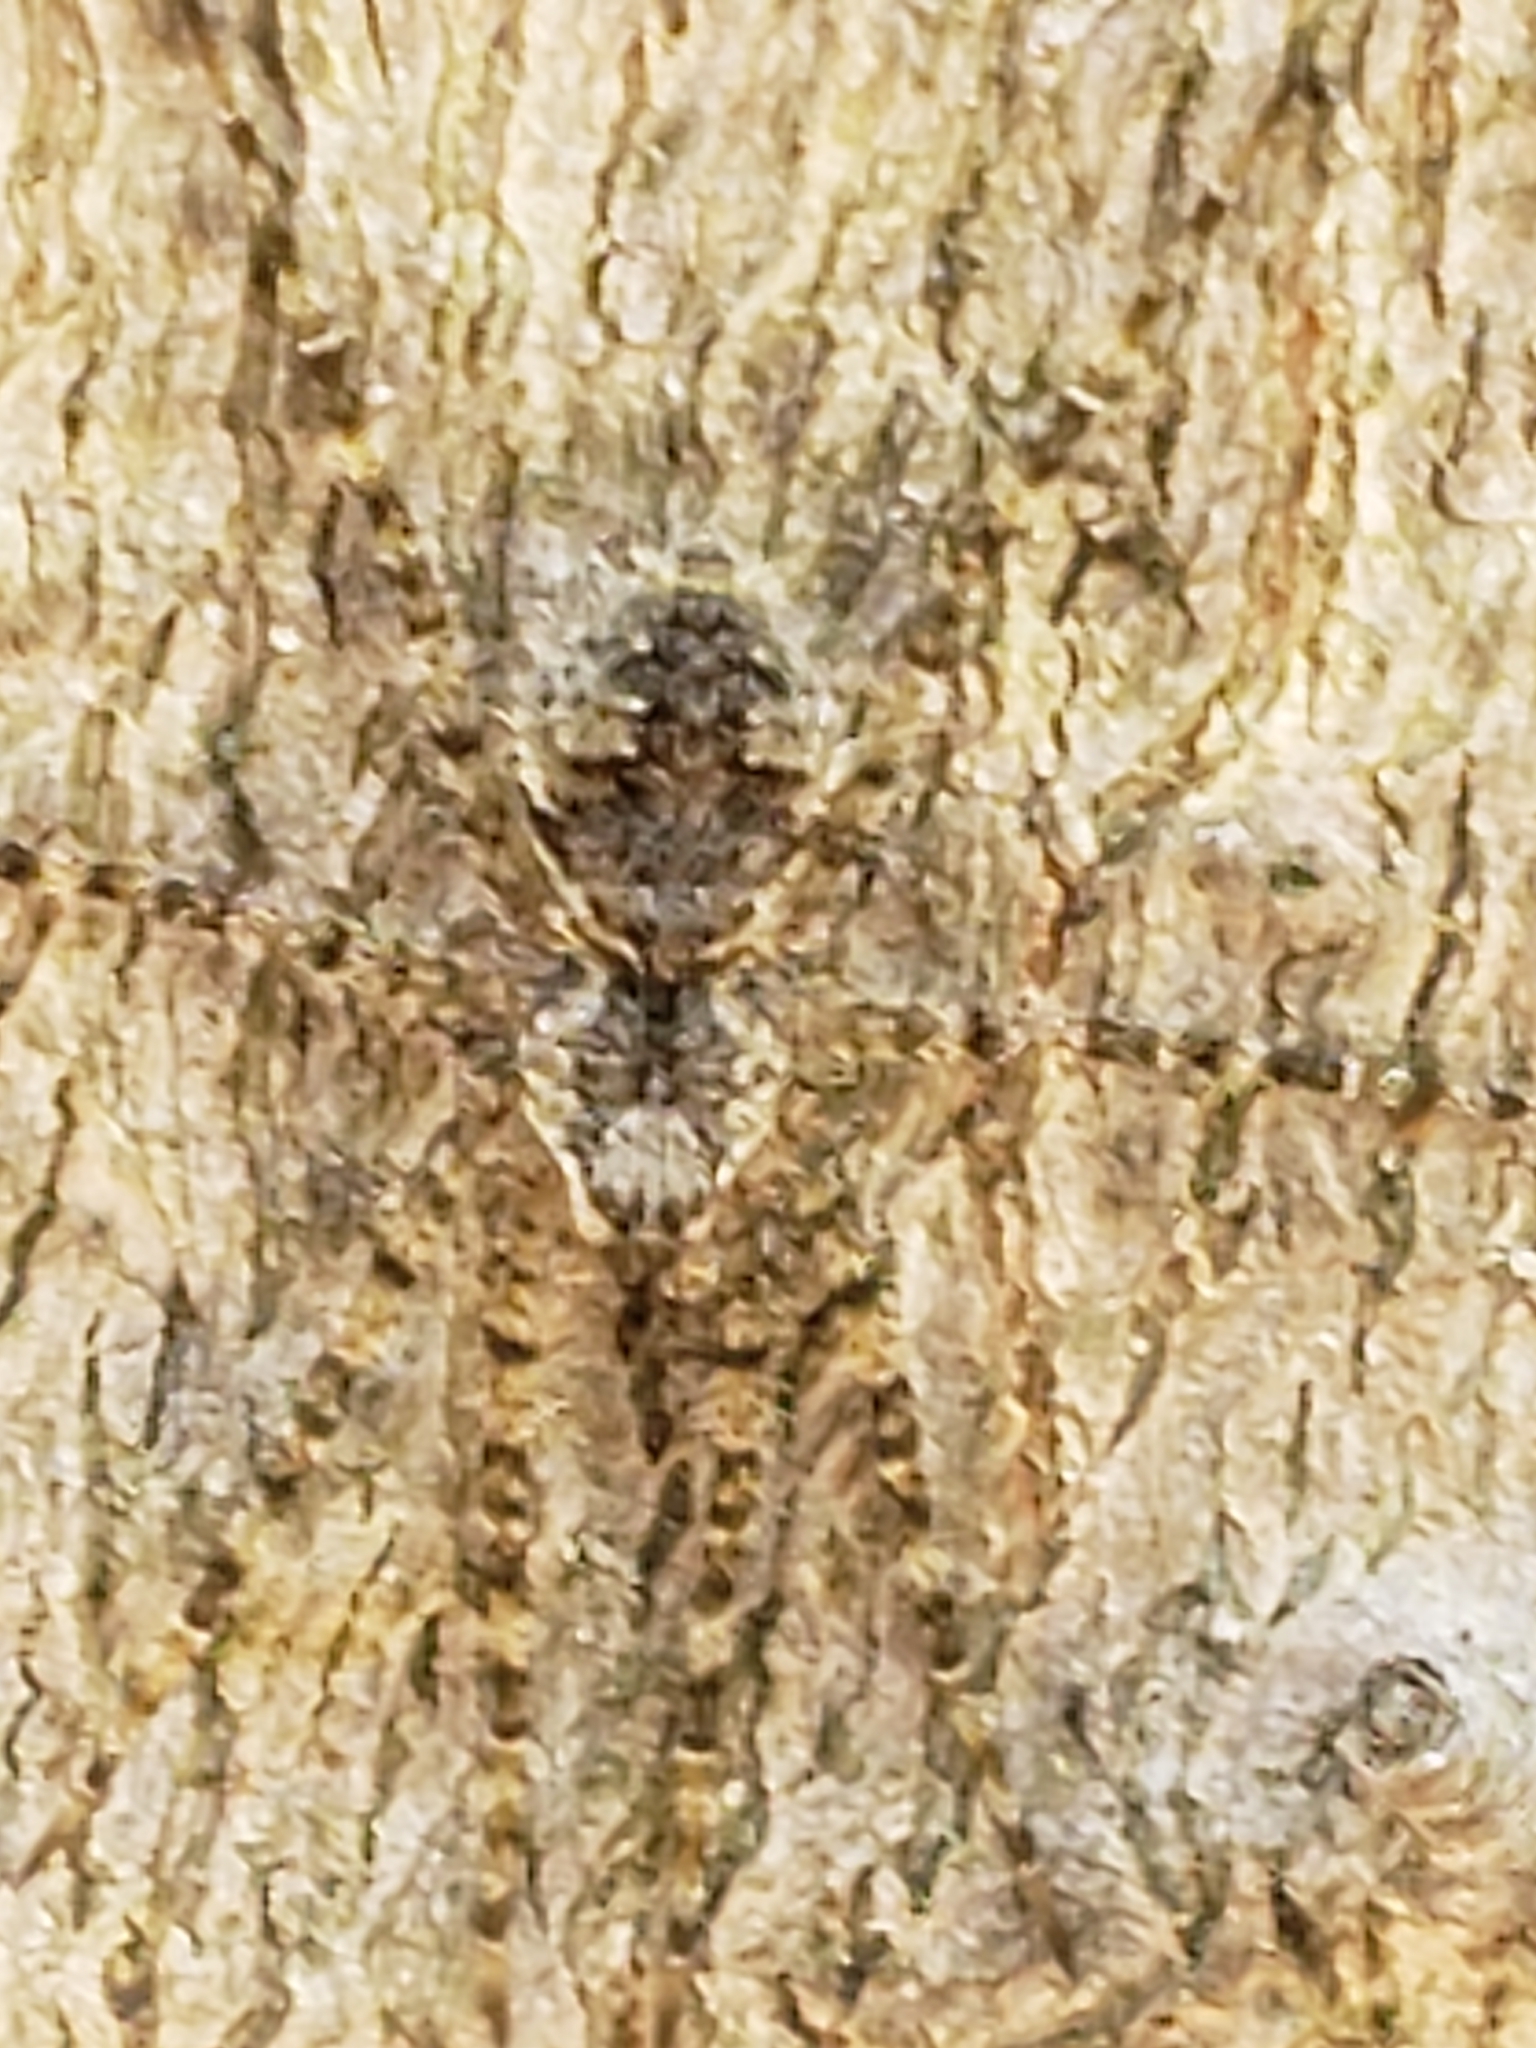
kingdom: Animalia
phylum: Arthropoda
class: Arachnida
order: Araneae
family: Pisauridae
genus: Dolomedes
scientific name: Dolomedes albineus
